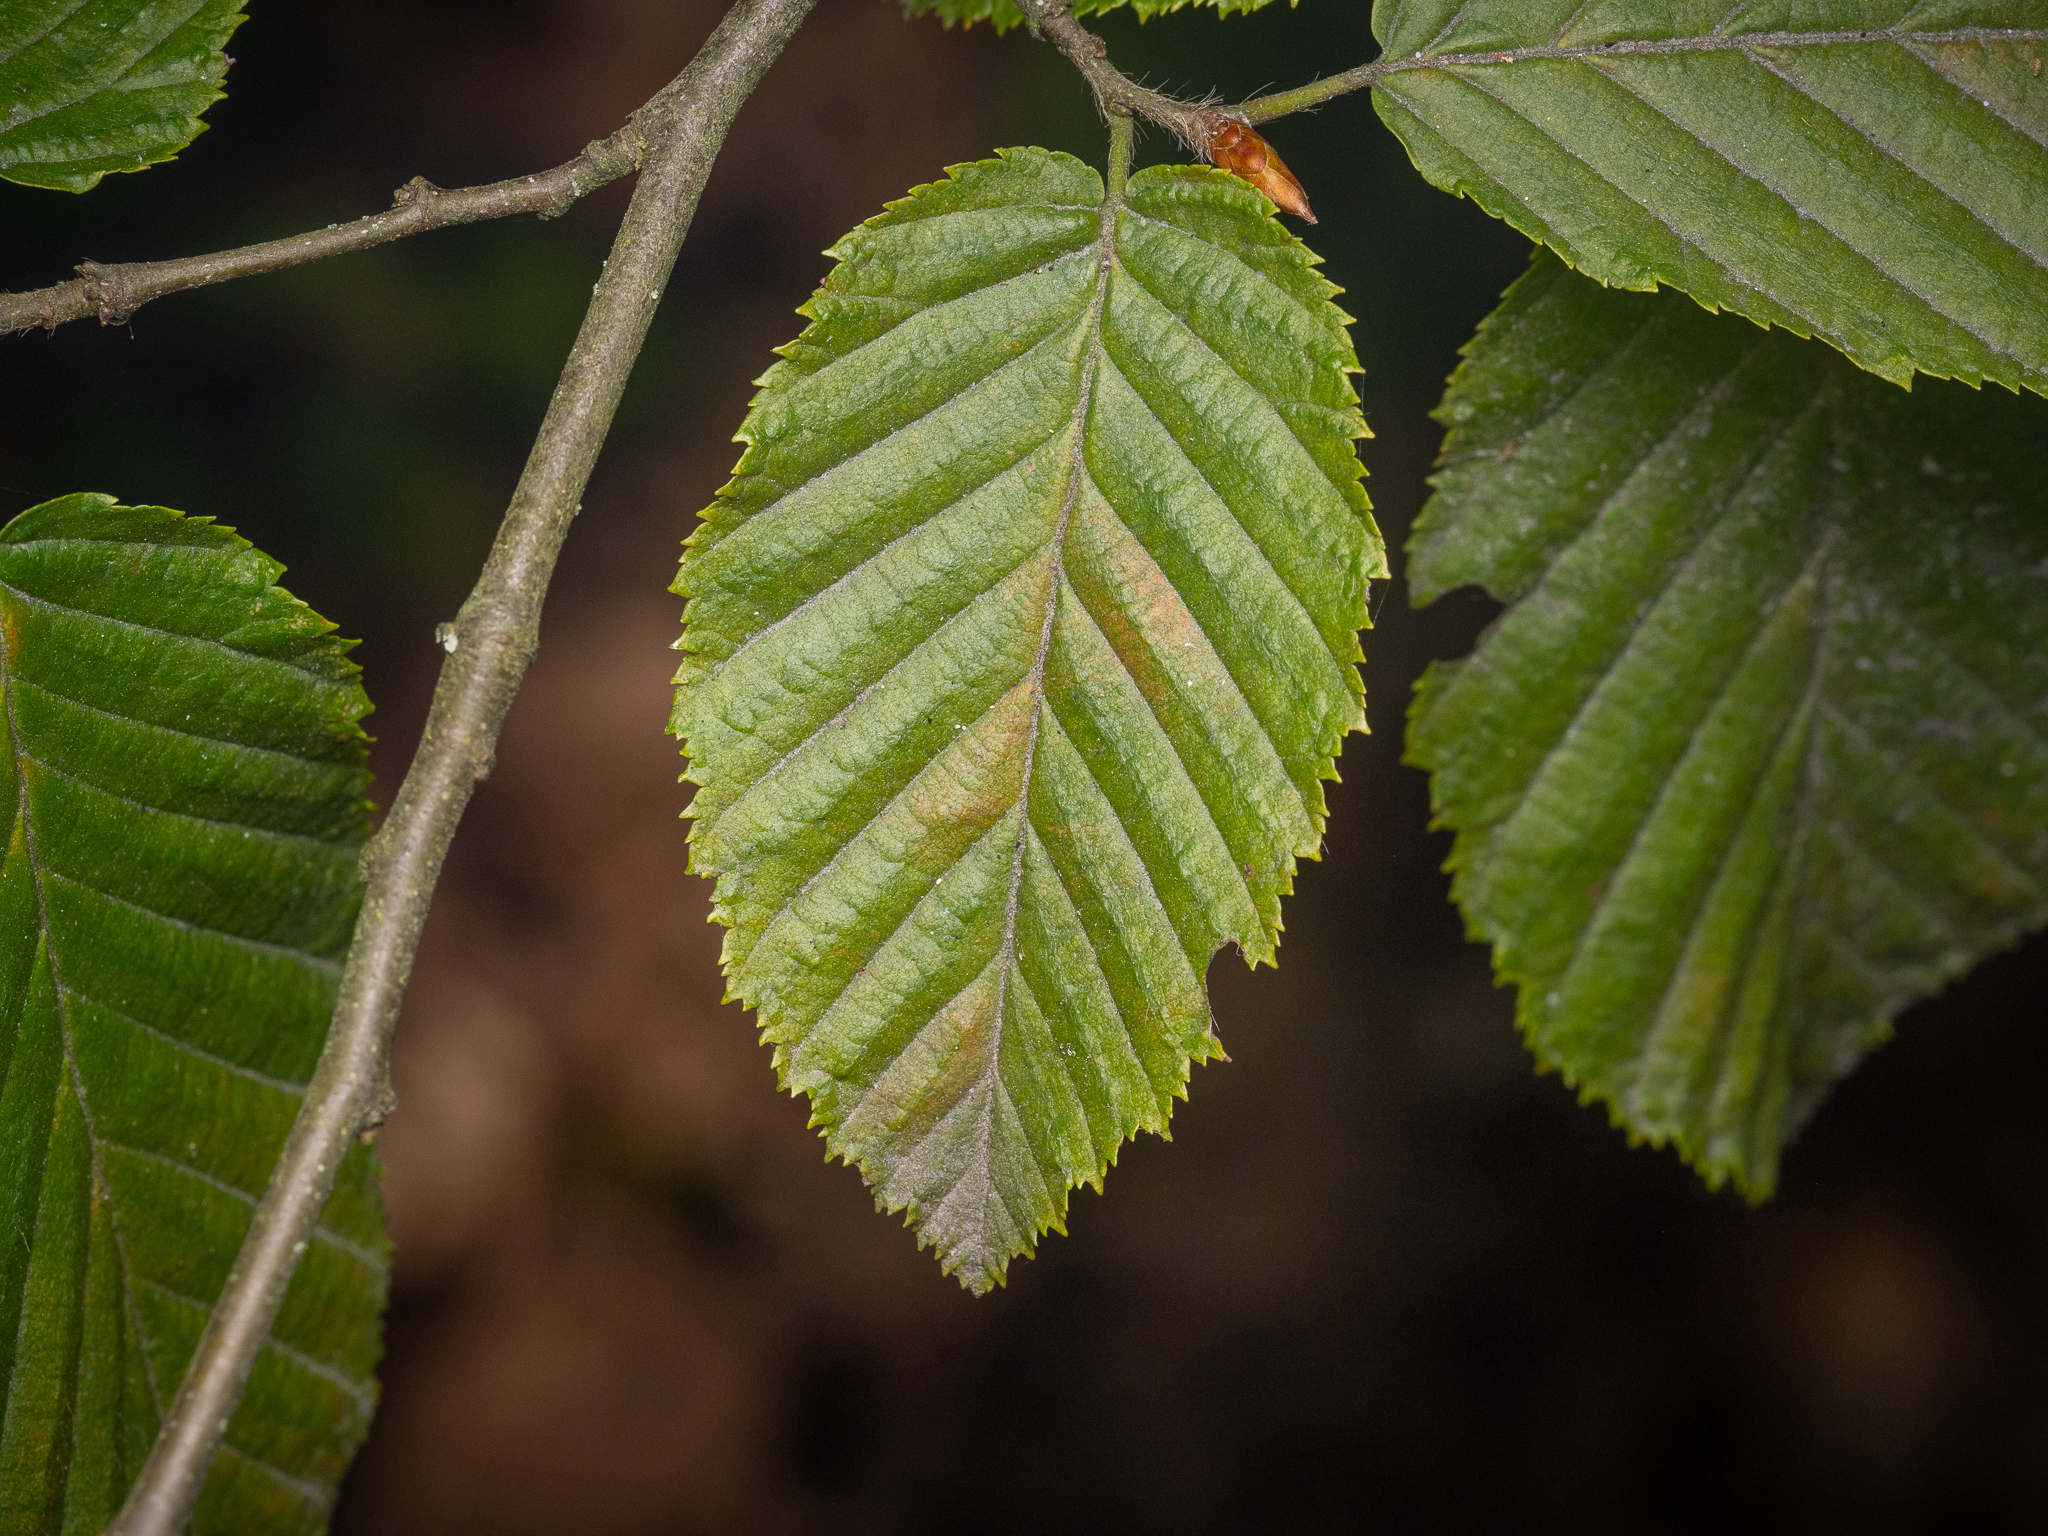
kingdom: Plantae
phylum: Tracheophyta
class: Magnoliopsida
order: Fagales
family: Betulaceae
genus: Carpinus
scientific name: Carpinus betulus
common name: Hornbeam
